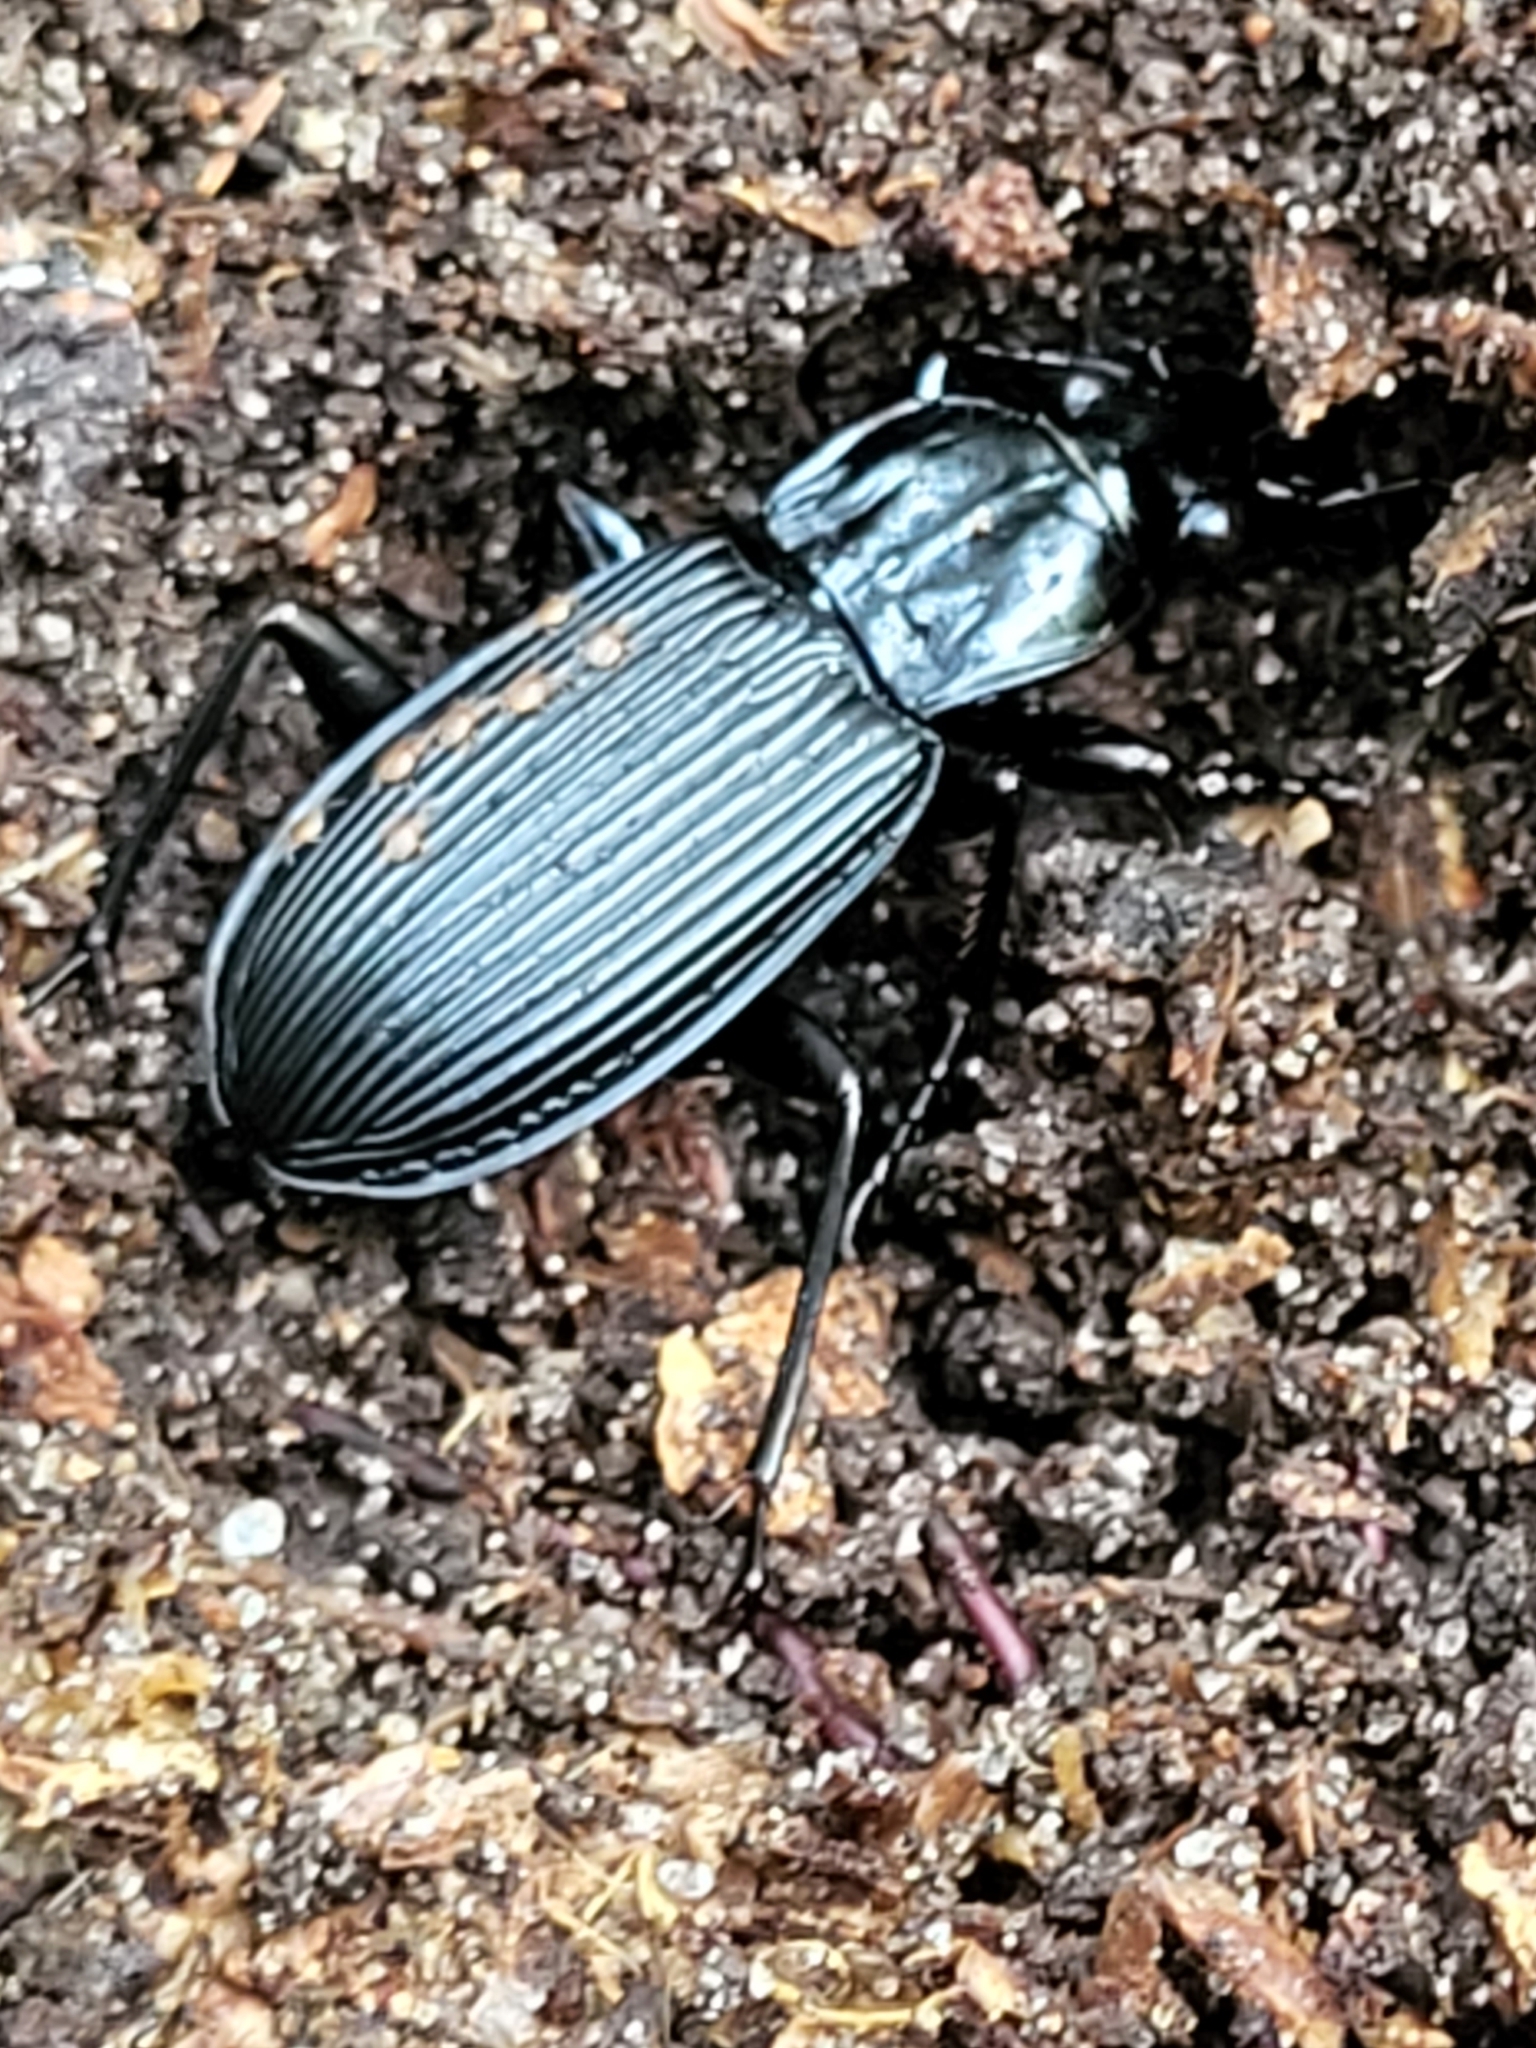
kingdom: Animalia
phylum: Arthropoda
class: Insecta
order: Coleoptera
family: Carabidae
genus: Pterostichus
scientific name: Pterostichus niger
